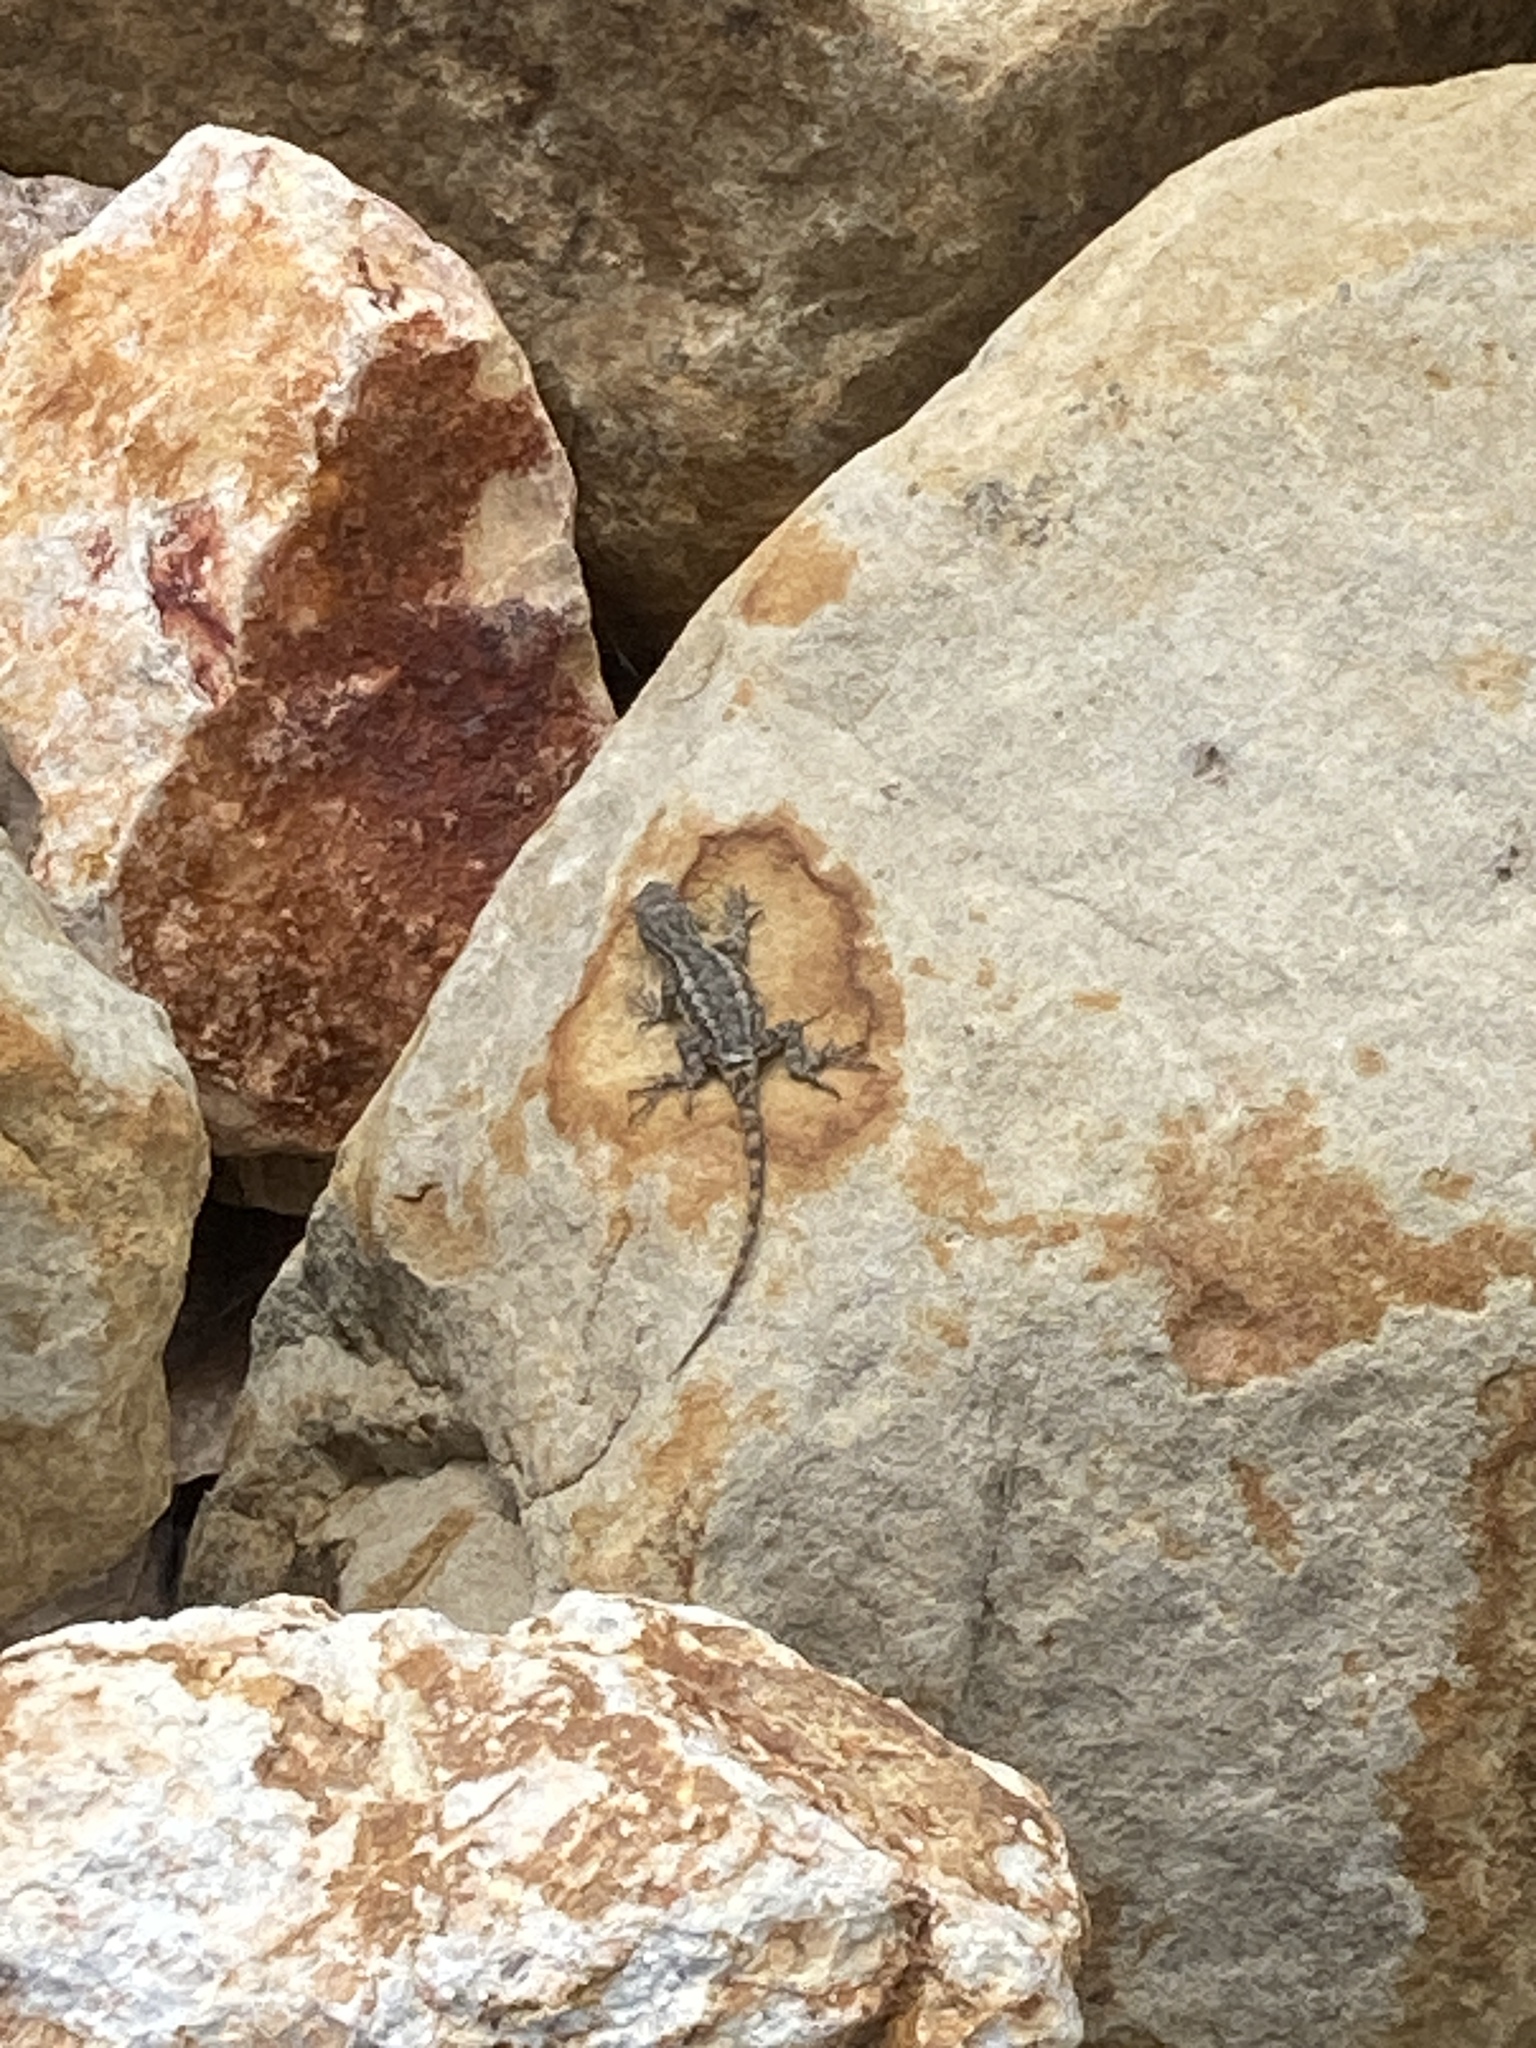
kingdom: Animalia
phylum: Chordata
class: Squamata
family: Phrynosomatidae
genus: Sceloporus
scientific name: Sceloporus occidentalis
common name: Western fence lizard
